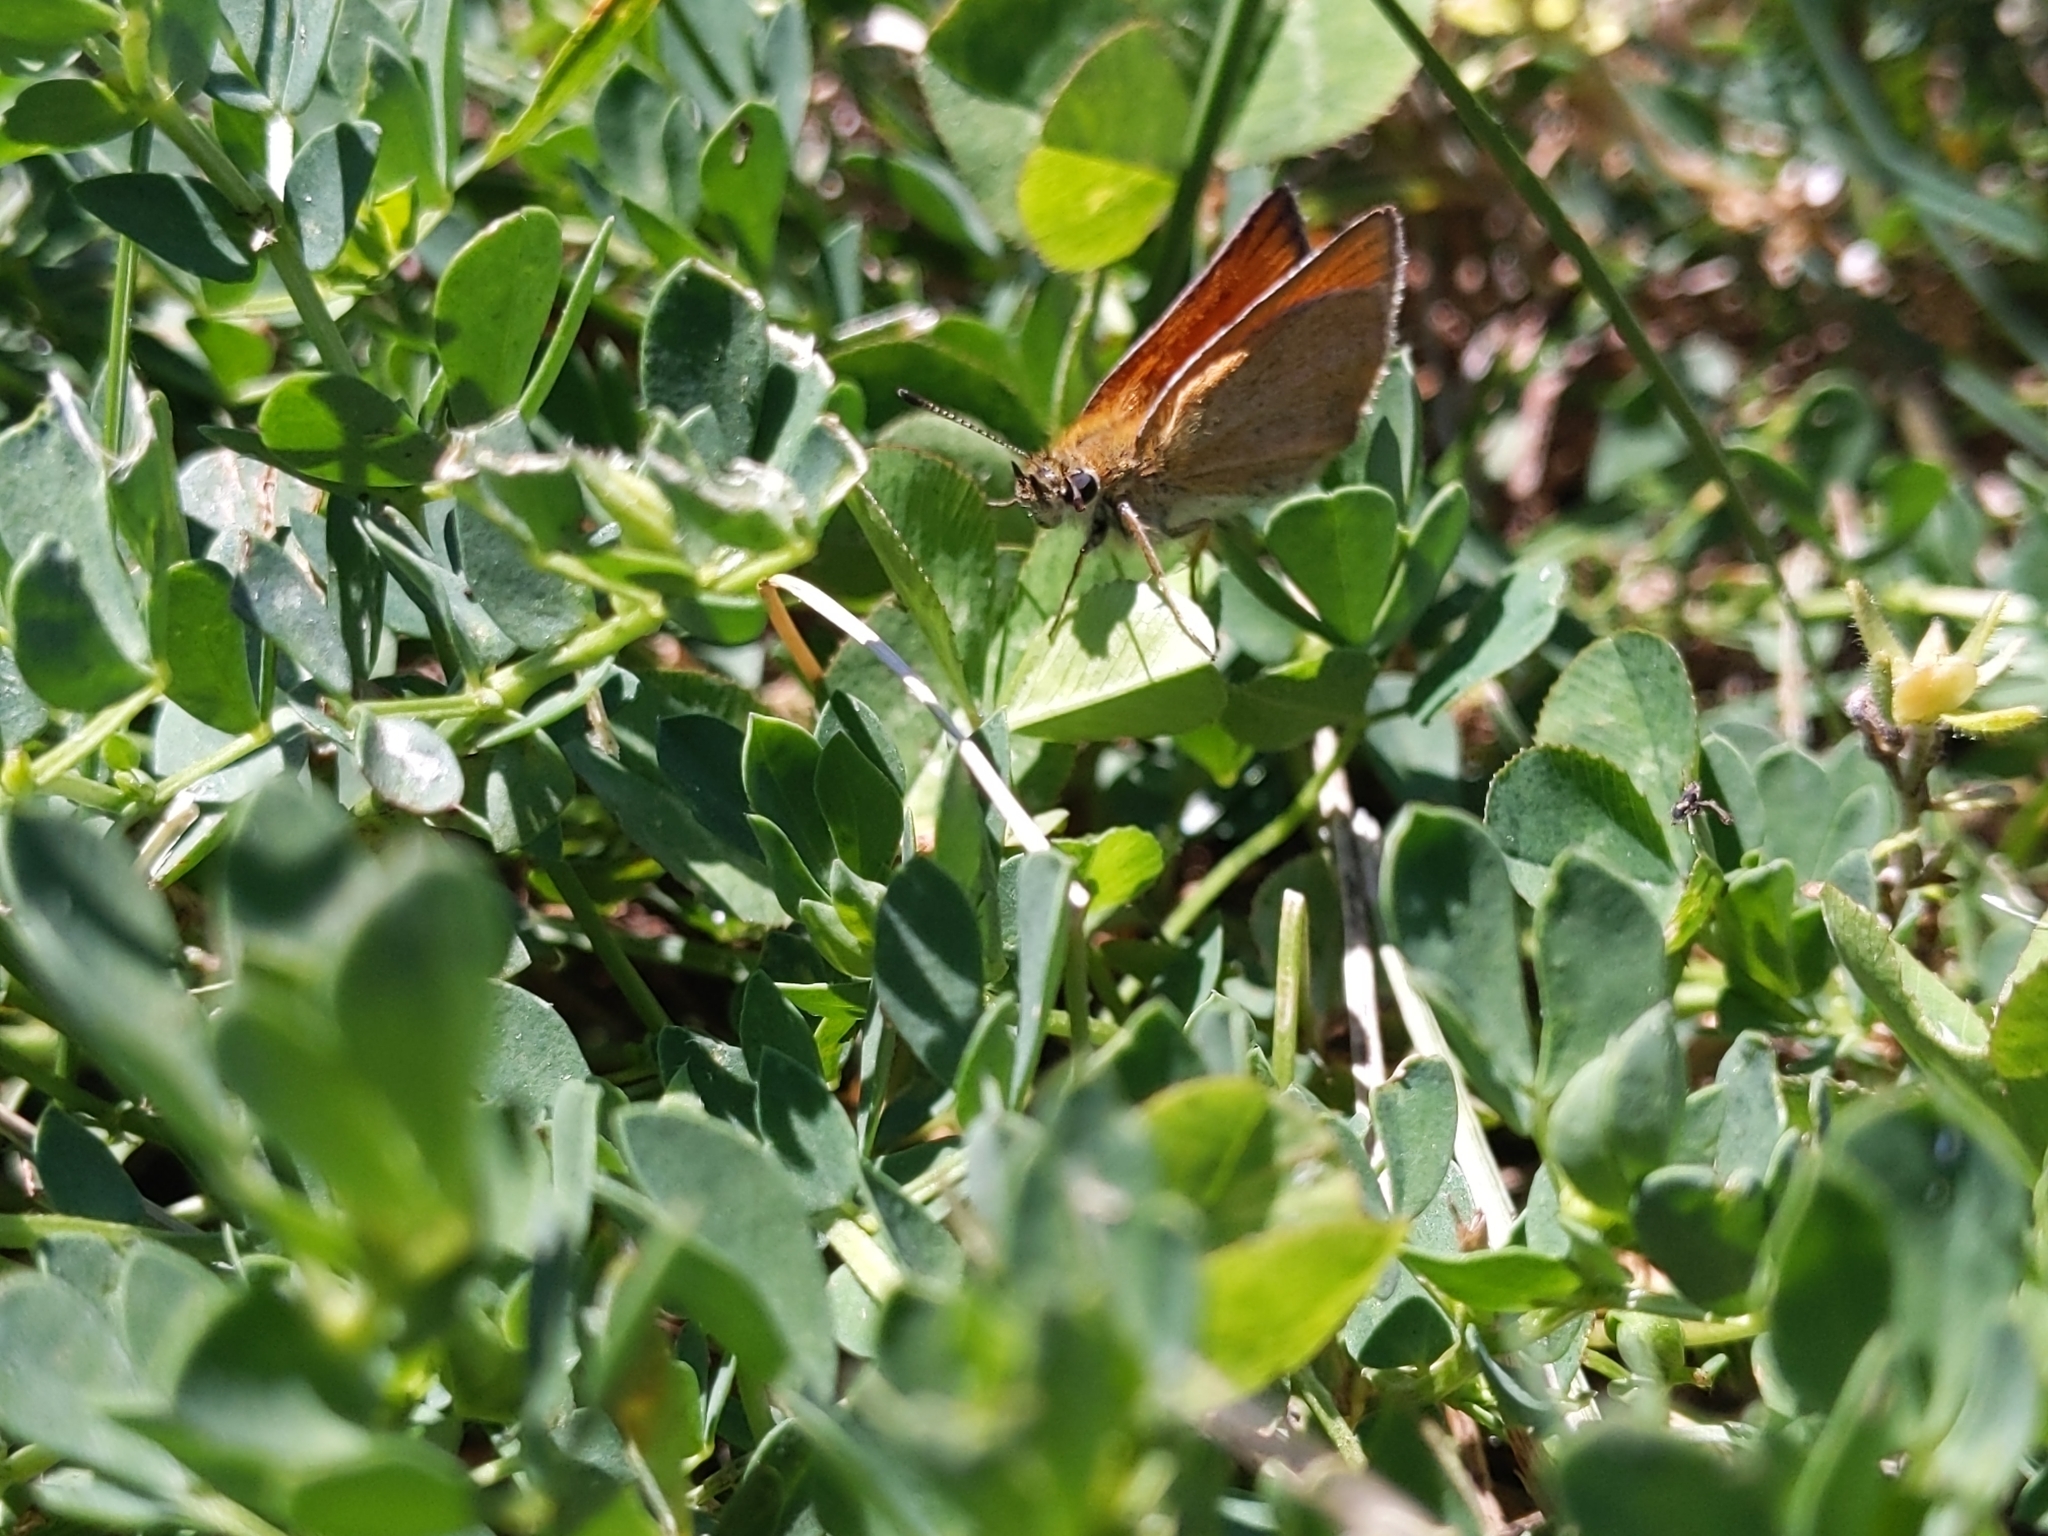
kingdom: Animalia
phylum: Arthropoda
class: Insecta
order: Lepidoptera
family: Hesperiidae
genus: Thymelicus
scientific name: Thymelicus lineola
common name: Essex skipper
